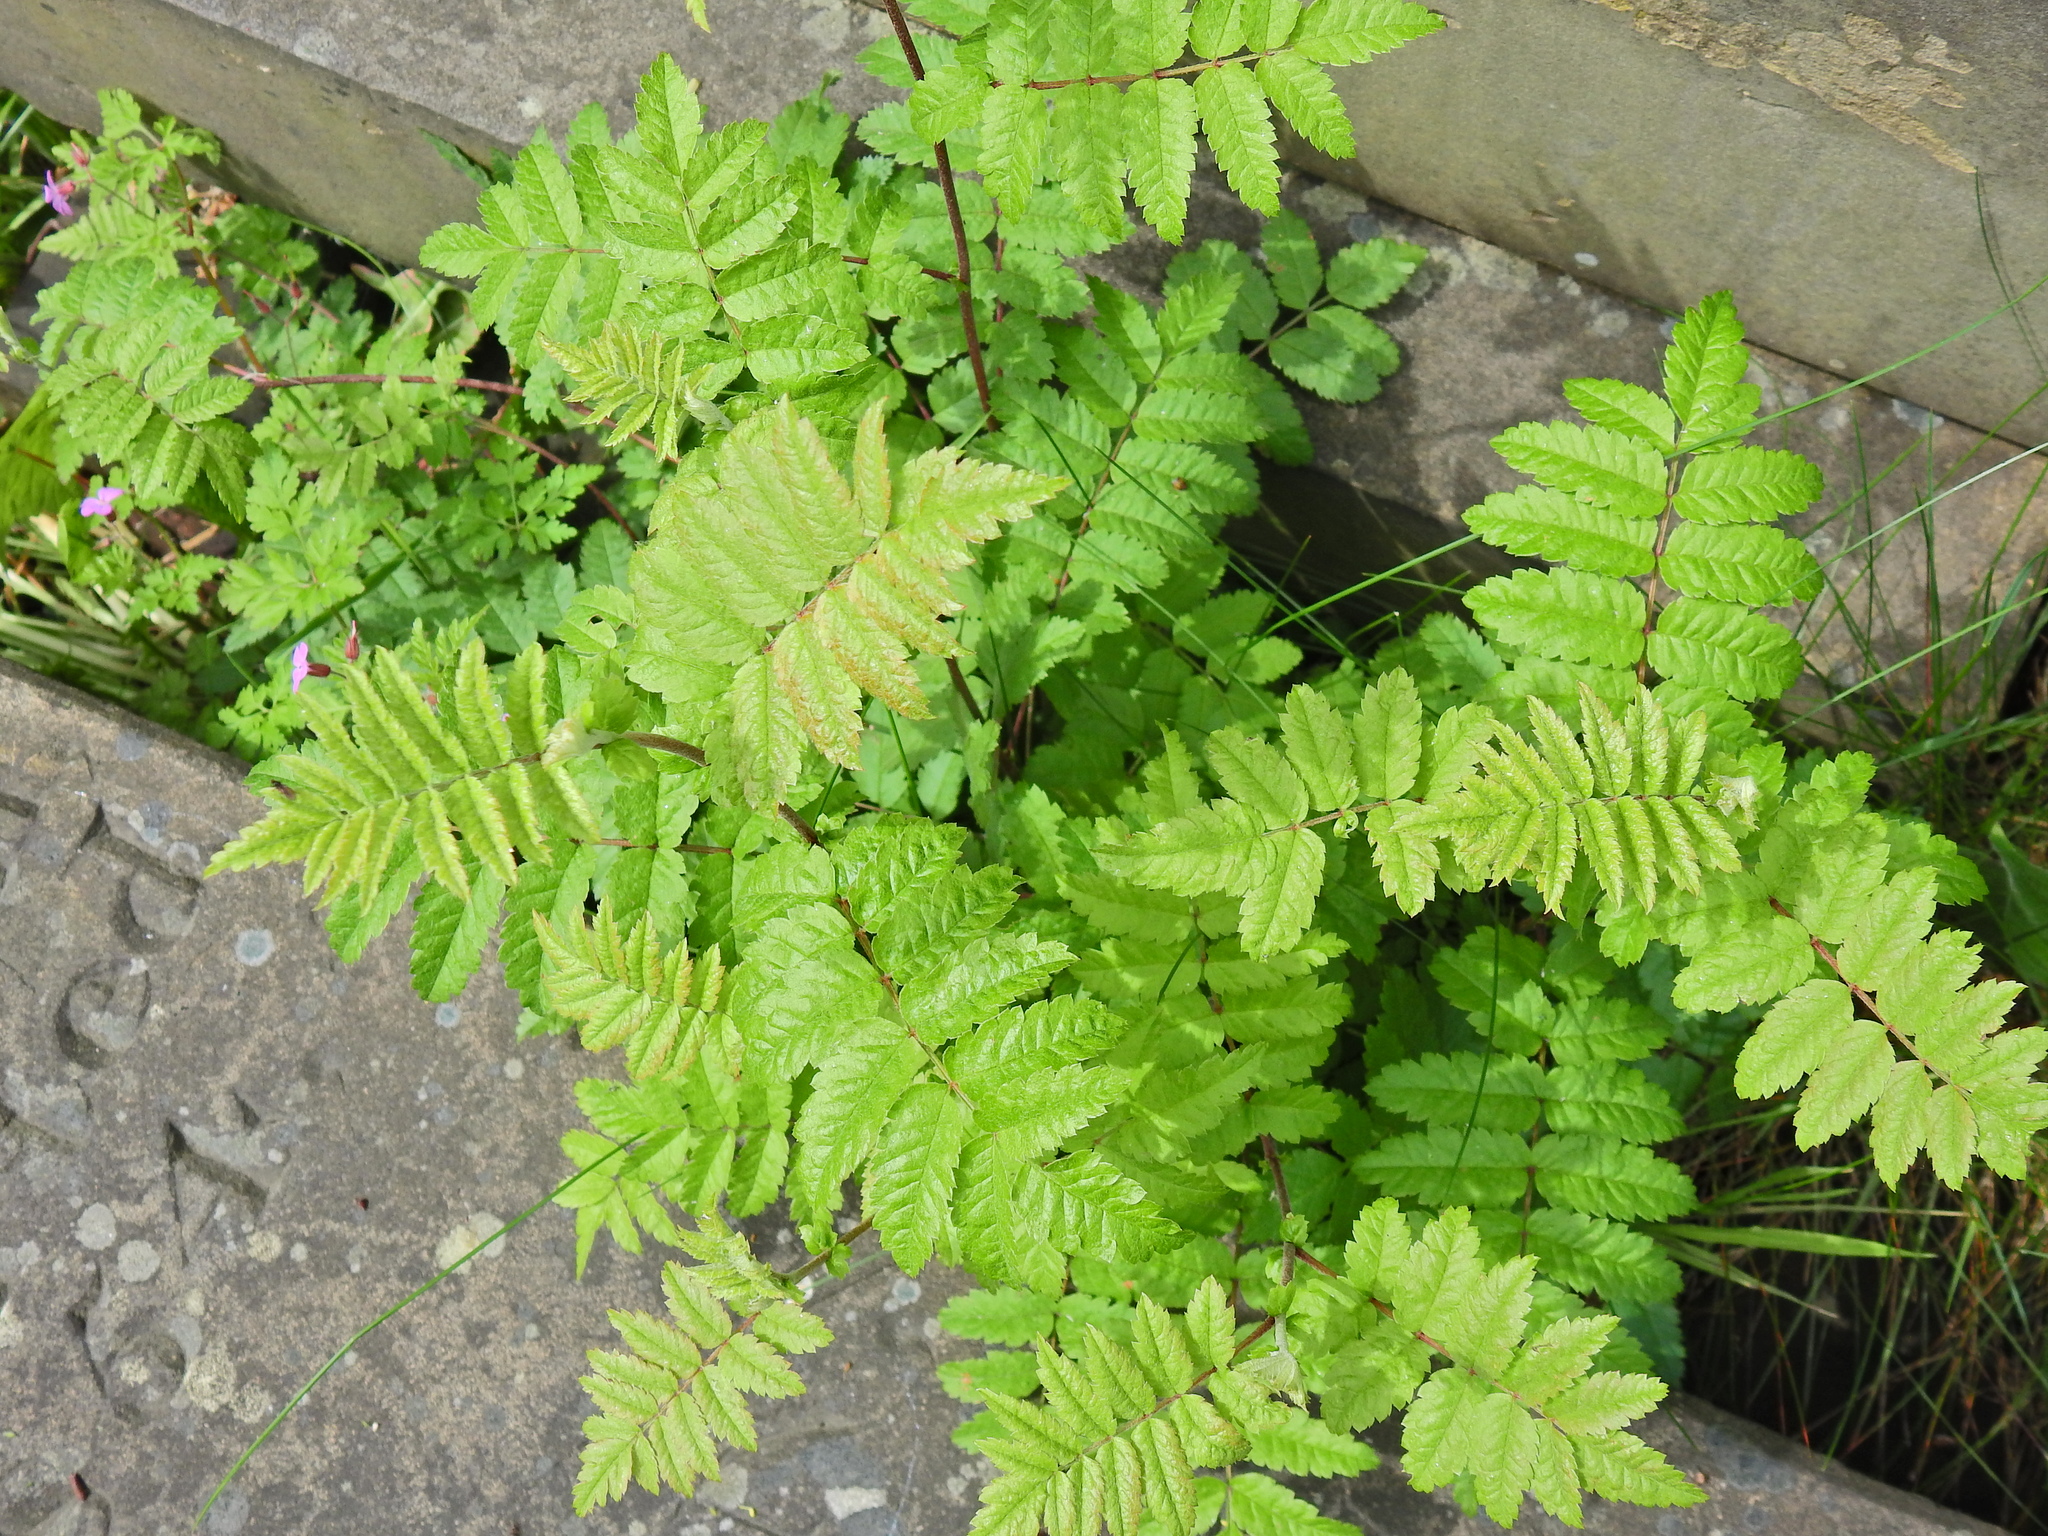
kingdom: Plantae
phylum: Tracheophyta
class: Magnoliopsida
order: Rosales
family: Rosaceae
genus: Sorbus
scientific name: Sorbus aucuparia
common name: Rowan
